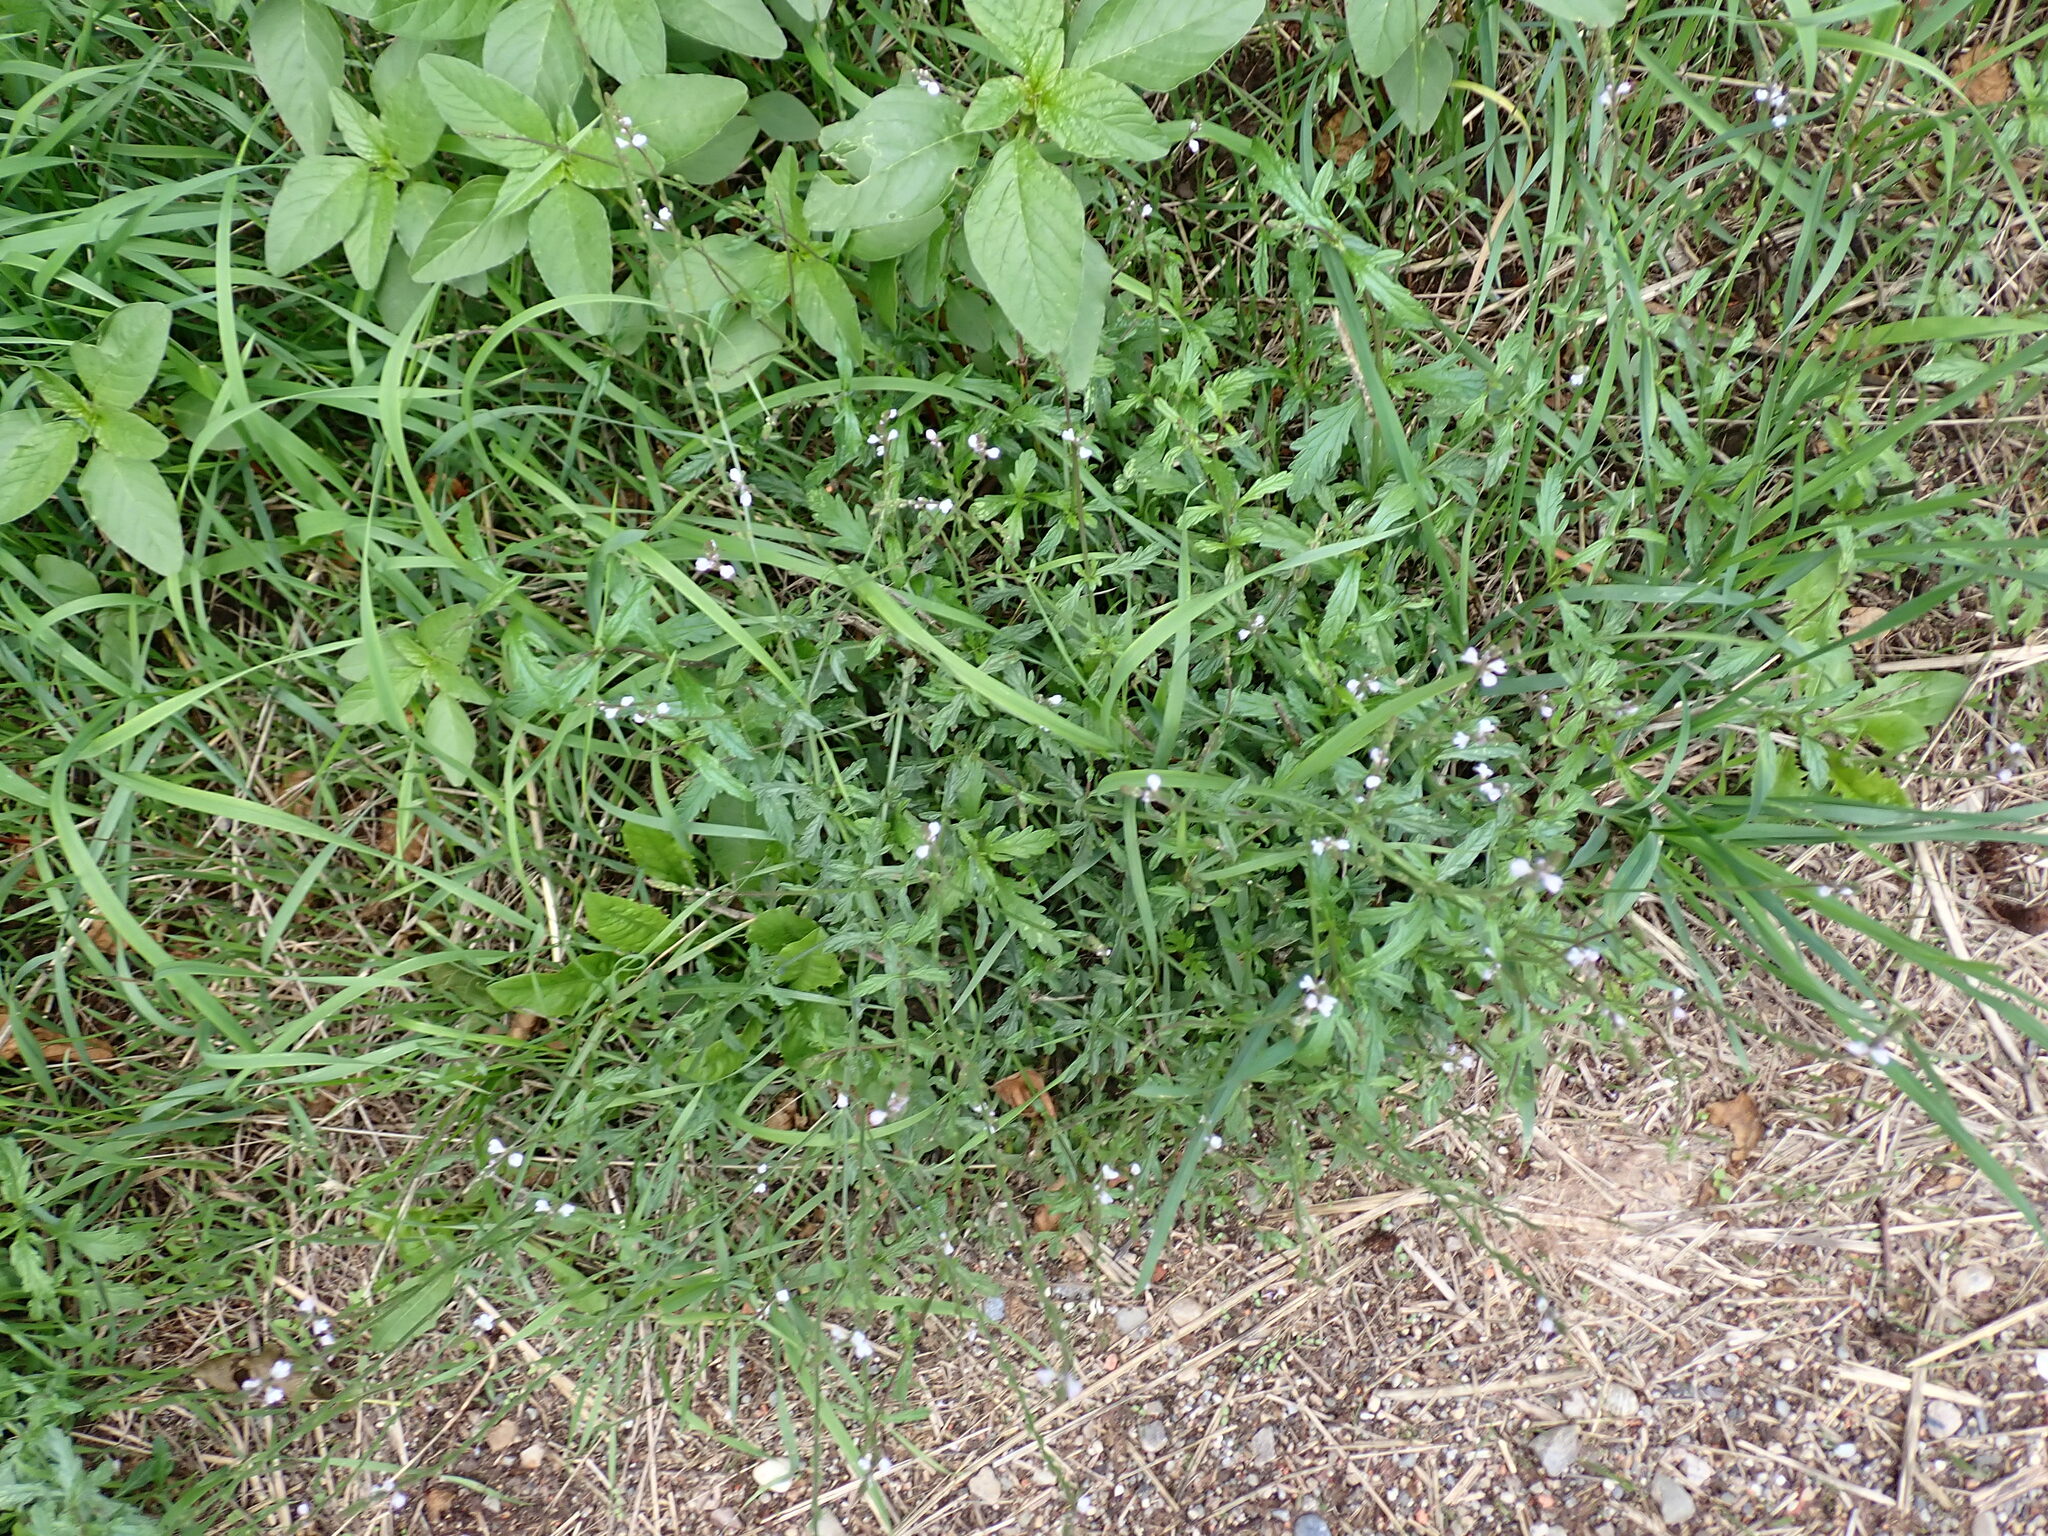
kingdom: Plantae
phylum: Tracheophyta
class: Magnoliopsida
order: Lamiales
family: Verbenaceae
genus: Verbena
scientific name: Verbena officinalis
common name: Vervain
